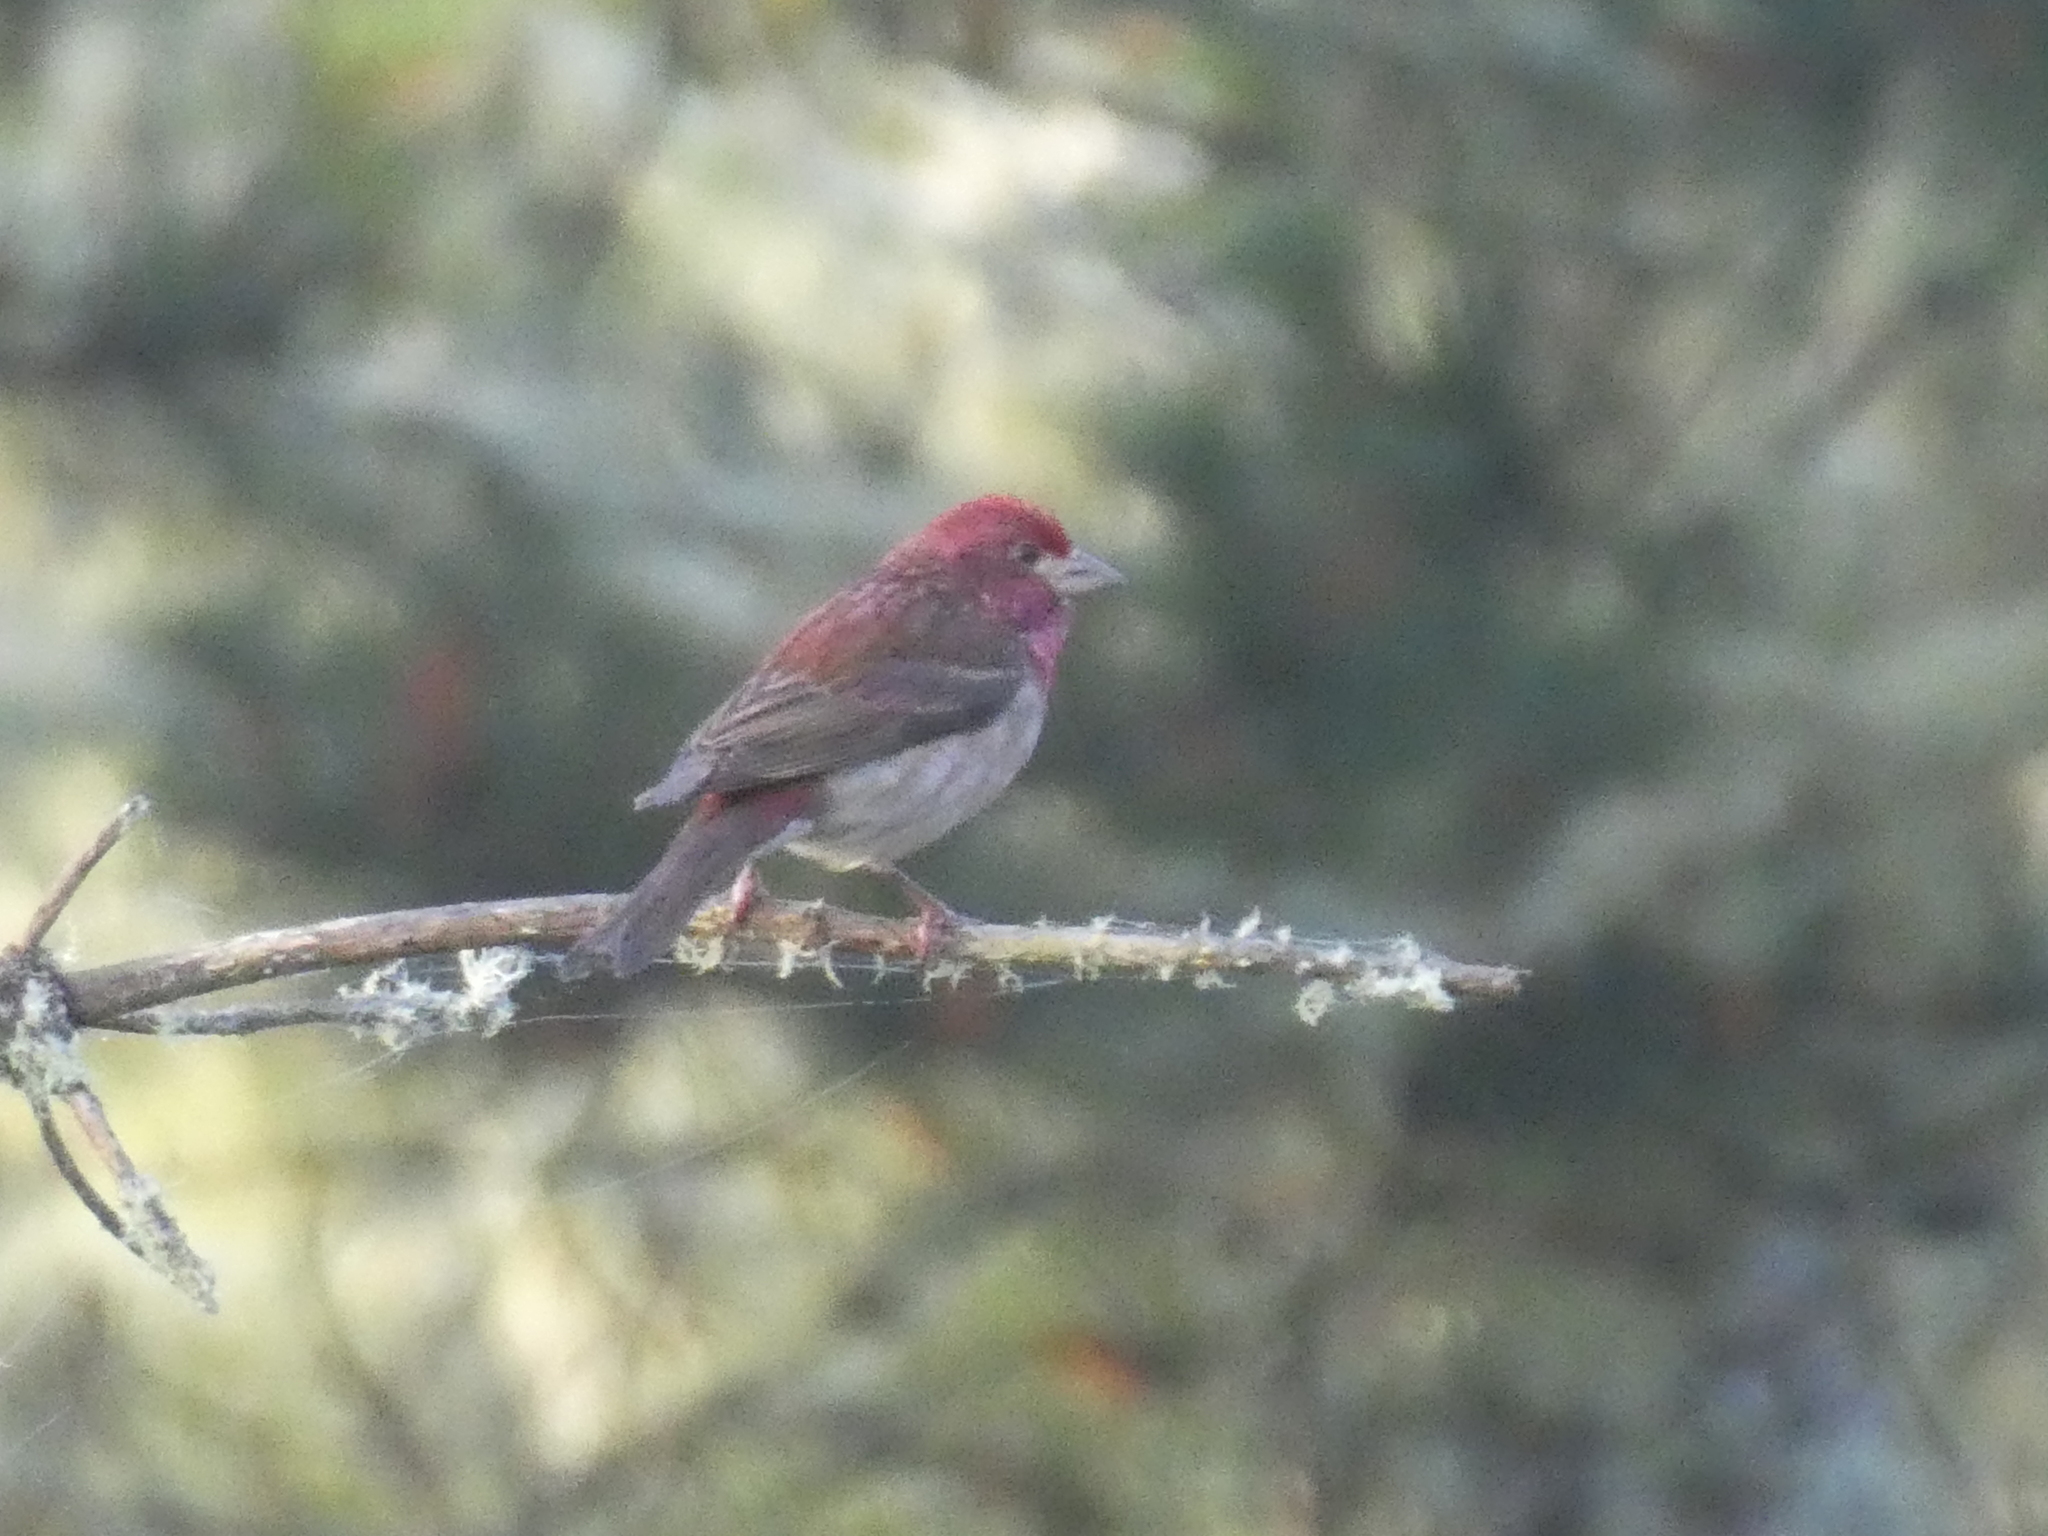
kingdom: Animalia
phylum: Chordata
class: Aves
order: Passeriformes
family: Fringillidae
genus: Haemorhous
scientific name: Haemorhous purpureus
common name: Purple finch
